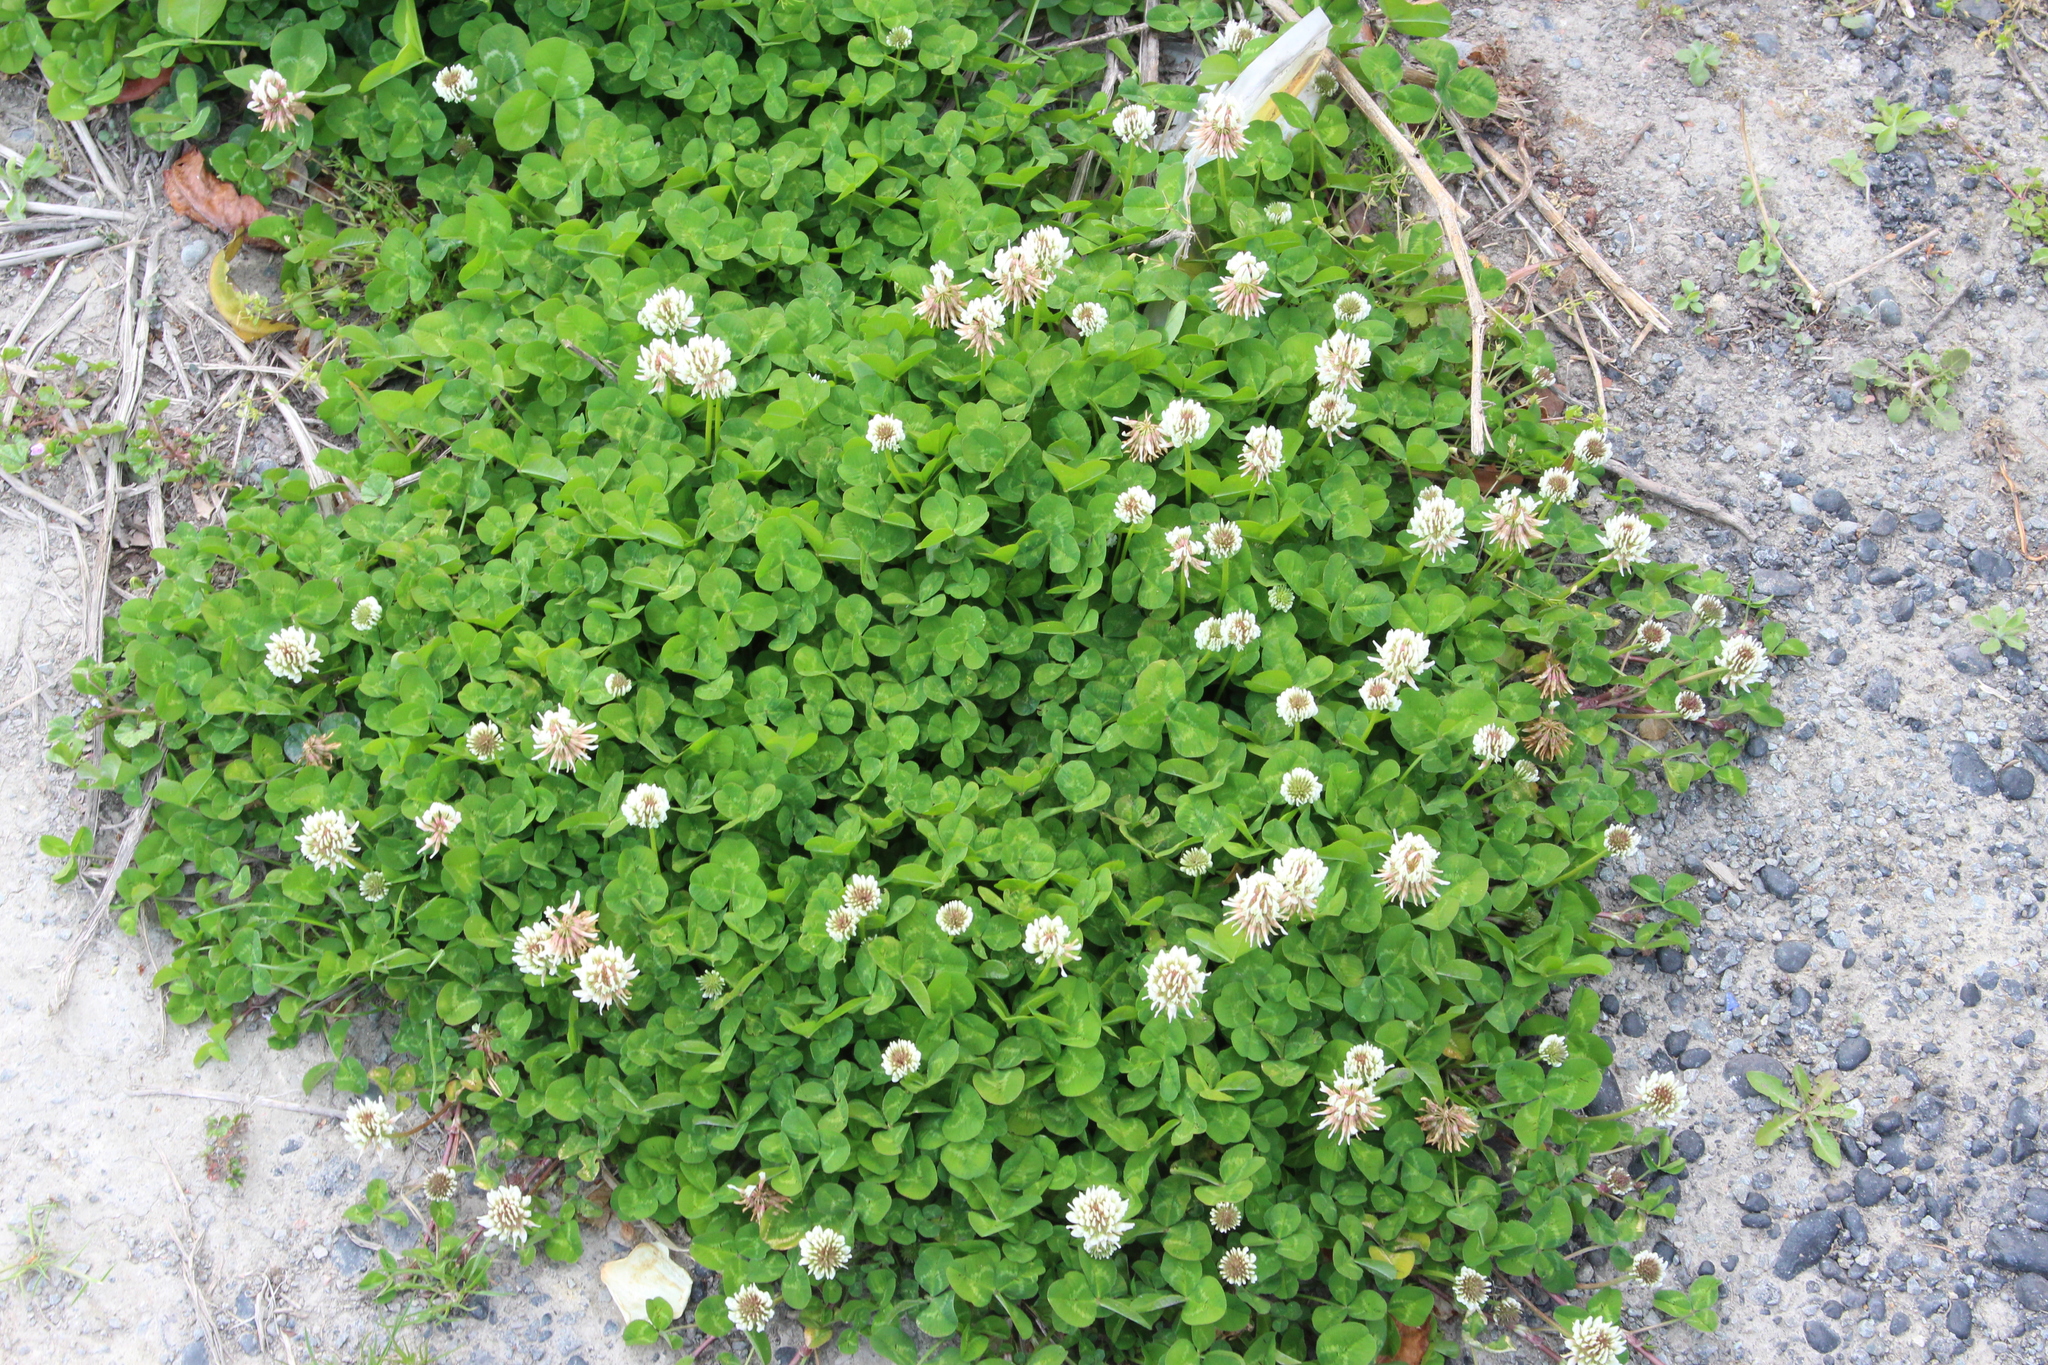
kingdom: Plantae
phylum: Tracheophyta
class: Magnoliopsida
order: Fabales
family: Fabaceae
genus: Trifolium
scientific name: Trifolium repens
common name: White clover
